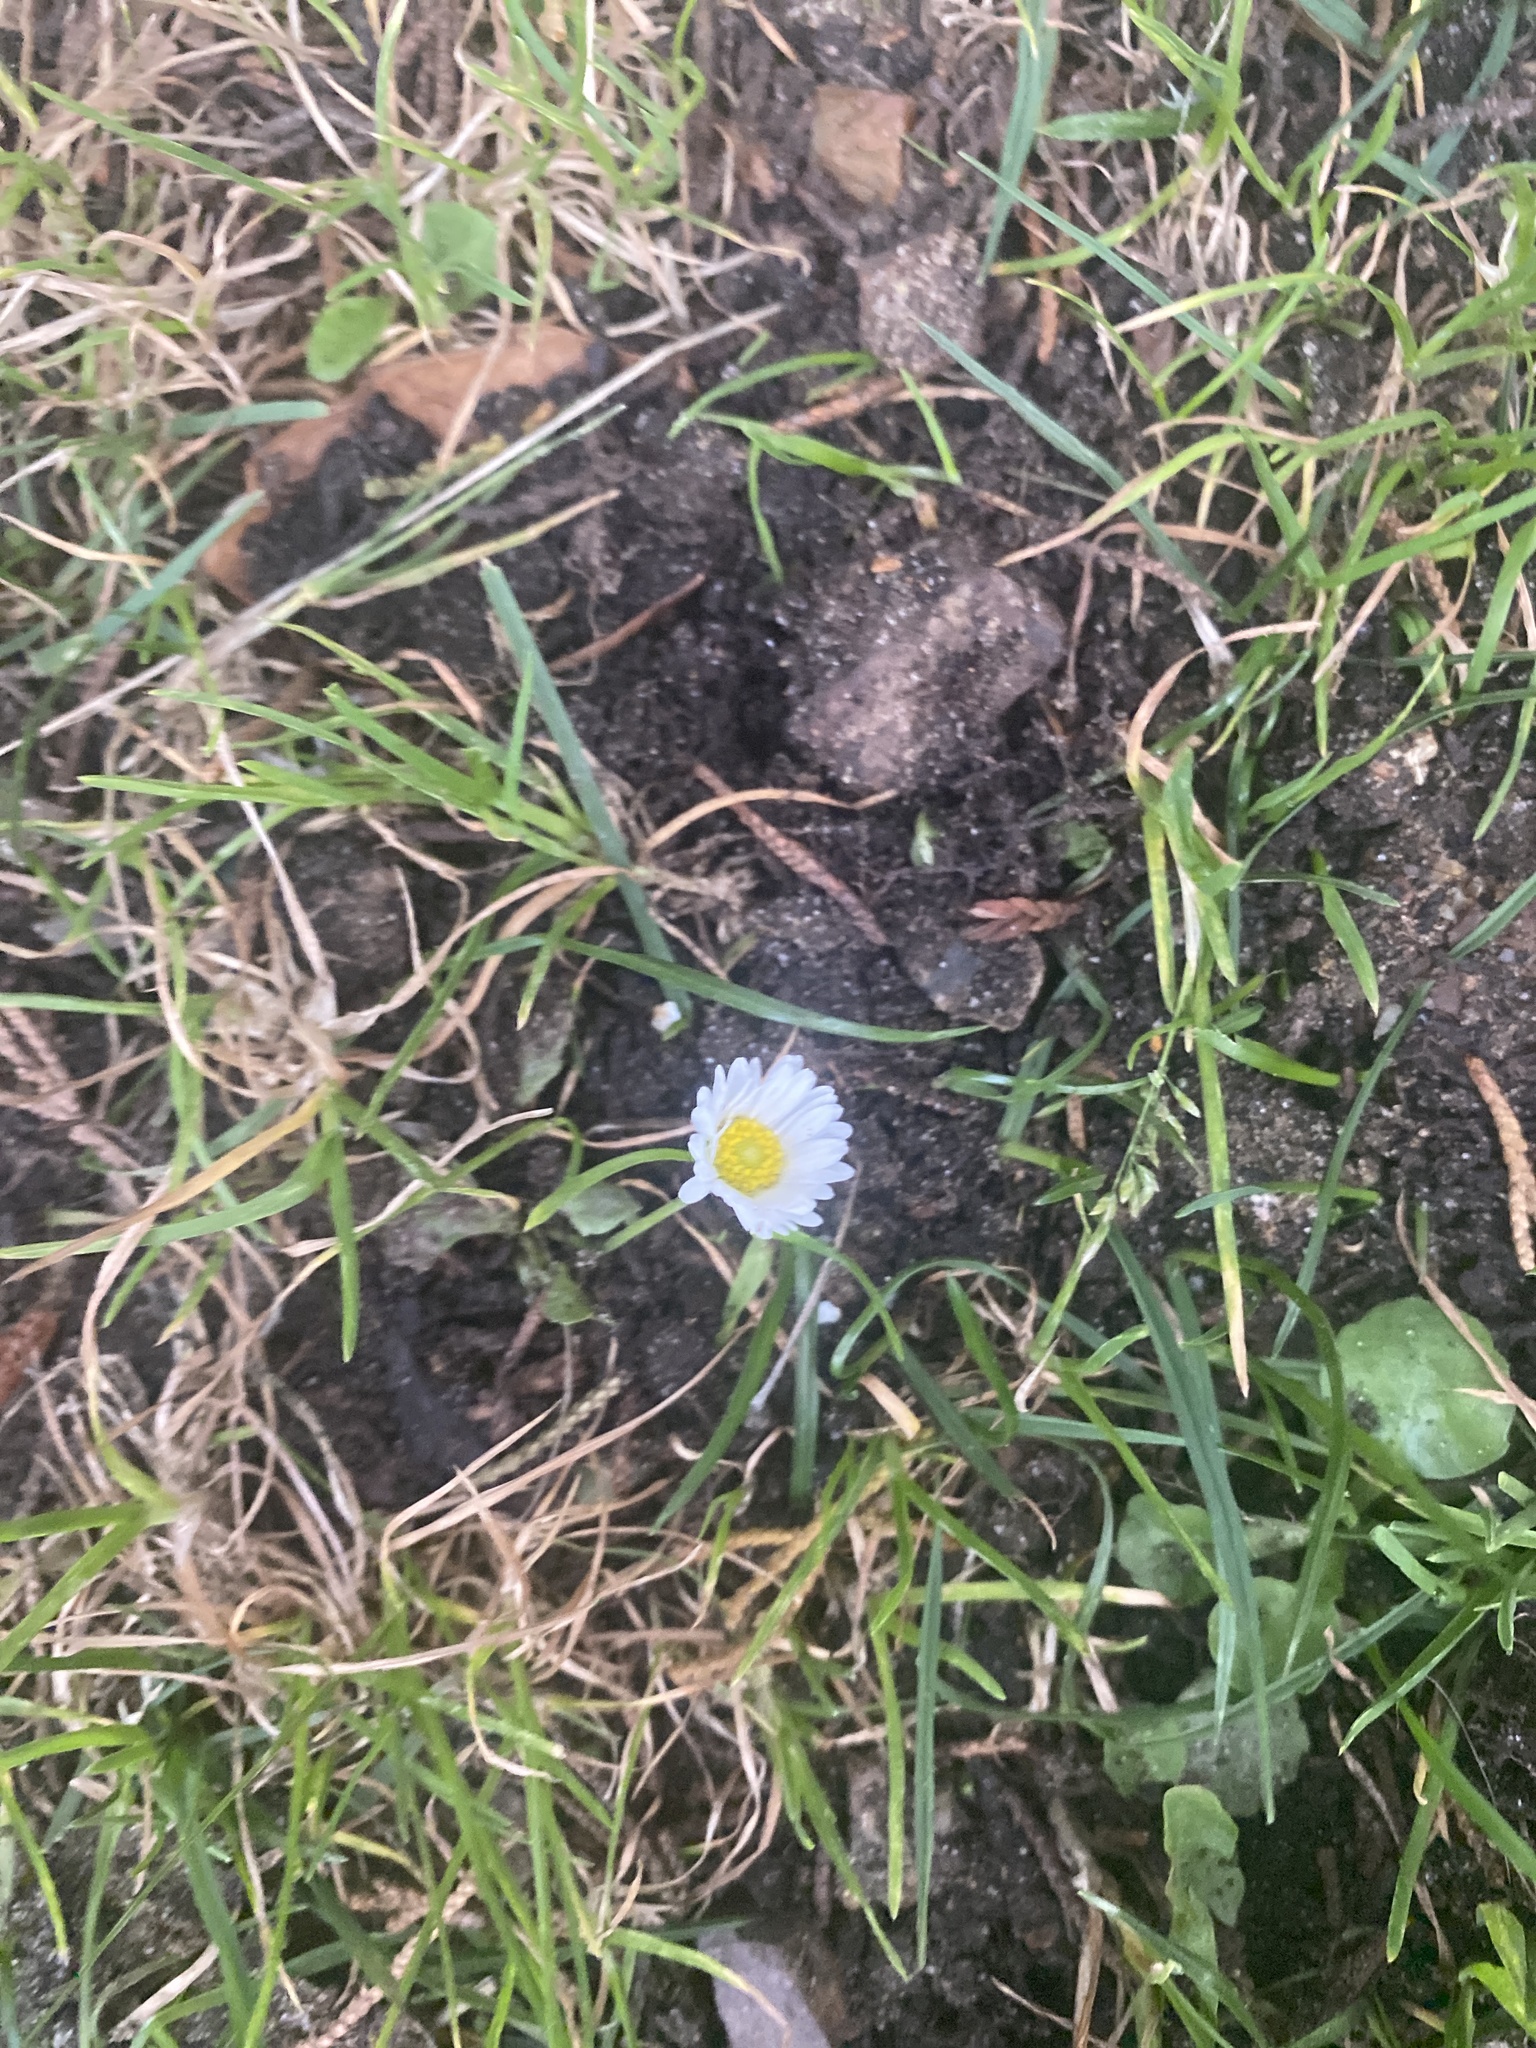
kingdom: Plantae
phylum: Tracheophyta
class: Magnoliopsida
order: Asterales
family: Asteraceae
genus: Bellis
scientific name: Bellis perennis
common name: Lawndaisy
